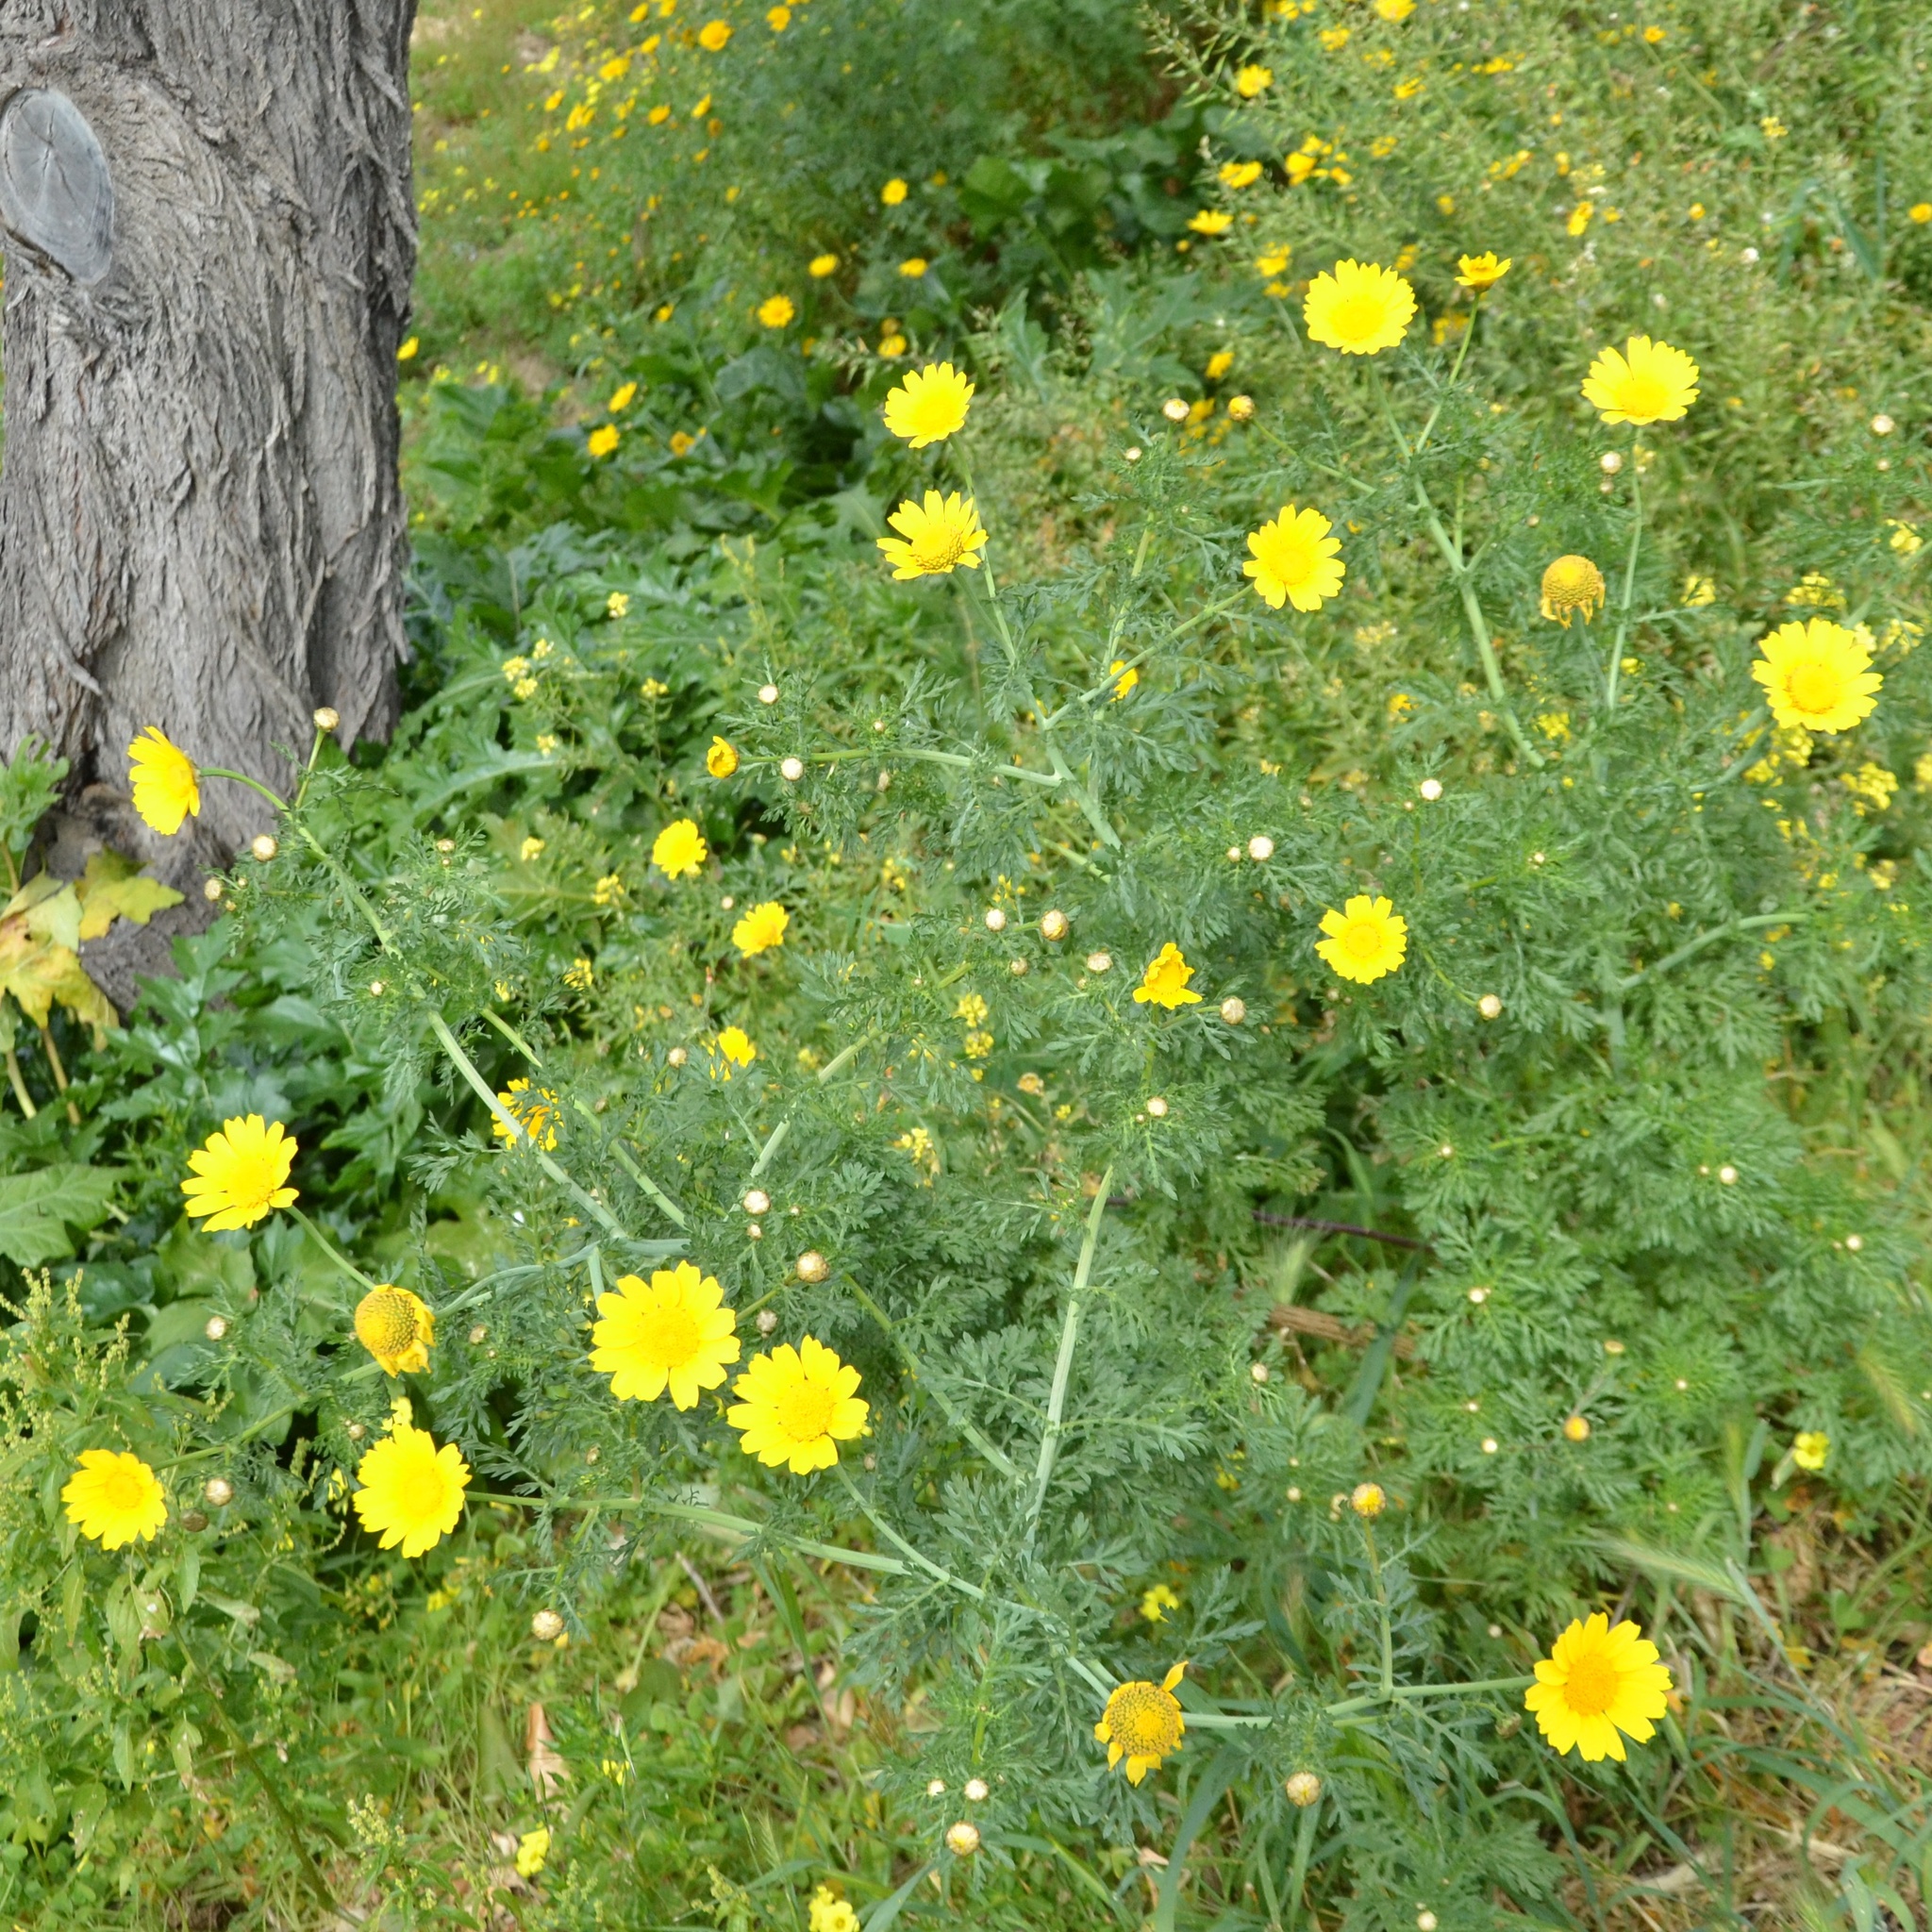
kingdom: Plantae
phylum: Tracheophyta
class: Magnoliopsida
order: Asterales
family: Asteraceae
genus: Glebionis
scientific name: Glebionis coronaria
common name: Crowndaisy
